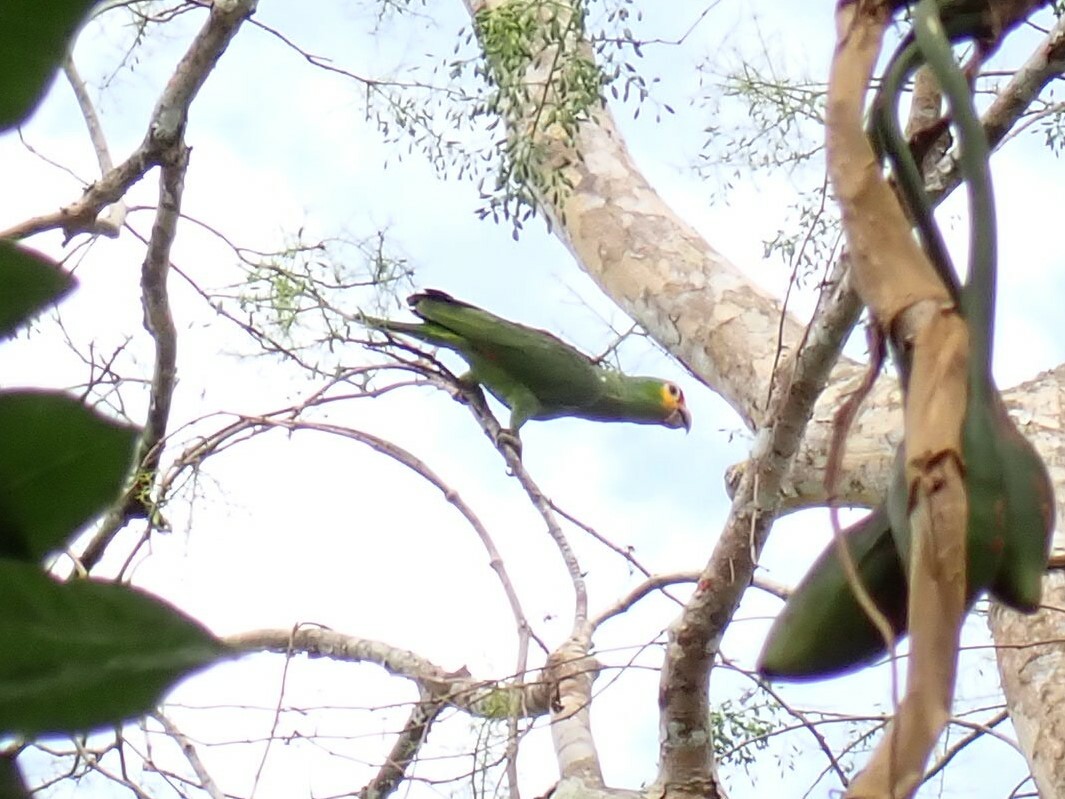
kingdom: Animalia
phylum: Chordata
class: Aves
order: Psittaciformes
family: Psittacidae
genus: Amazona
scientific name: Amazona autumnalis
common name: Red-lored amazon
